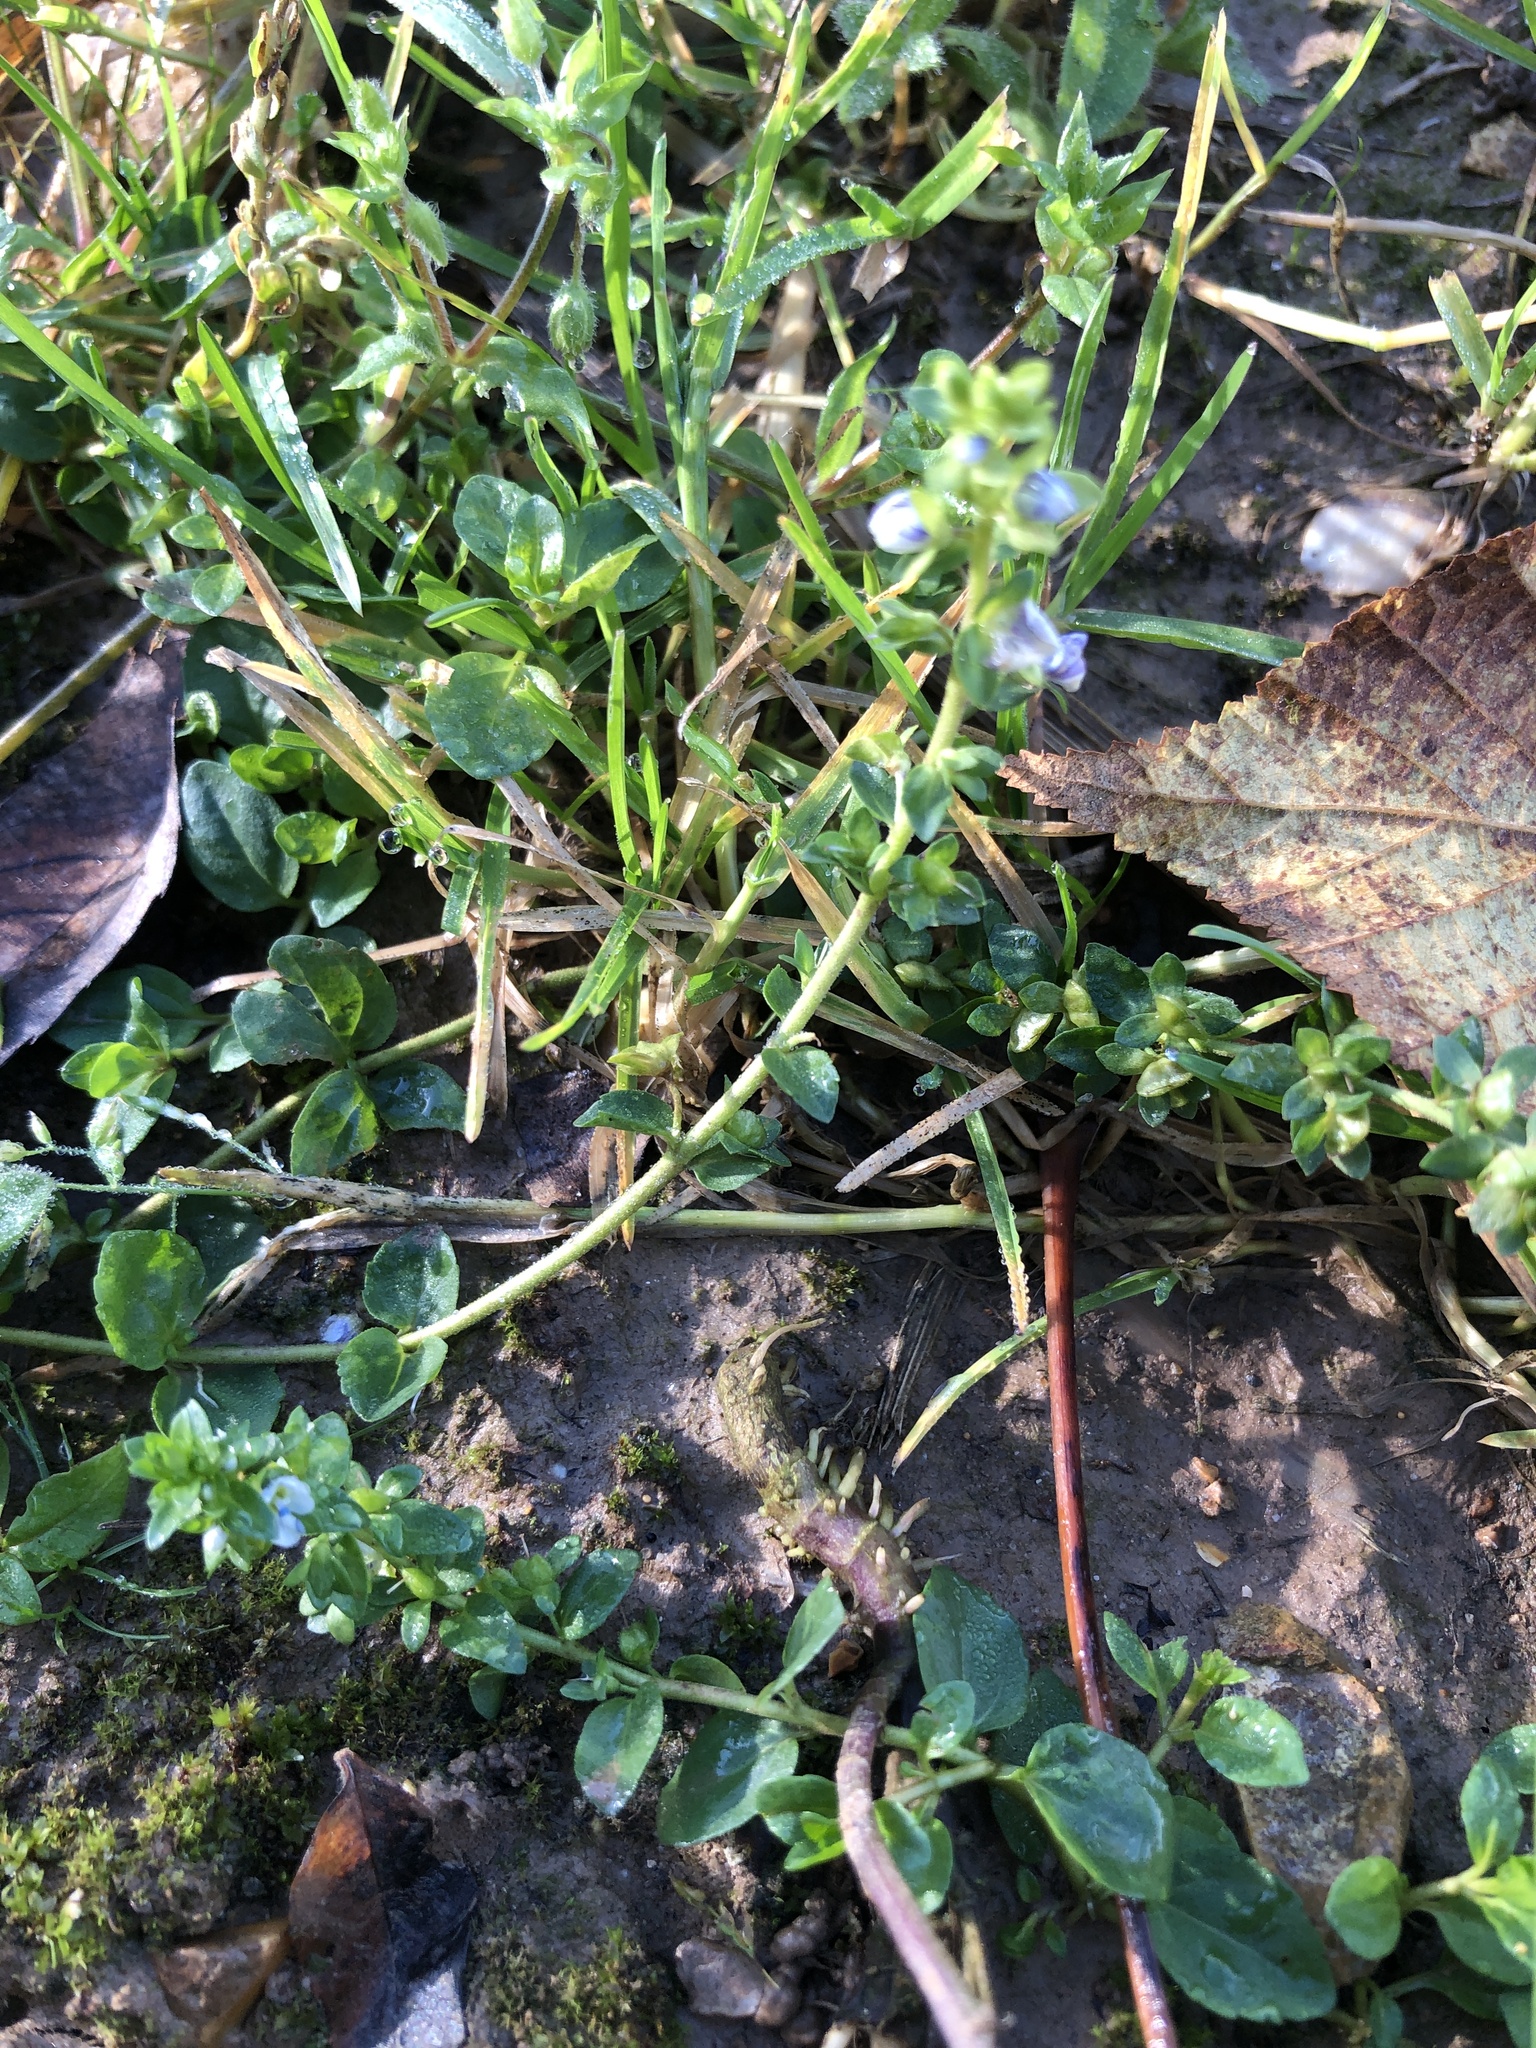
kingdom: Plantae
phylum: Tracheophyta
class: Magnoliopsida
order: Lamiales
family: Plantaginaceae
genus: Veronica
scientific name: Veronica serpyllifolia
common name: Thyme-leaved speedwell
